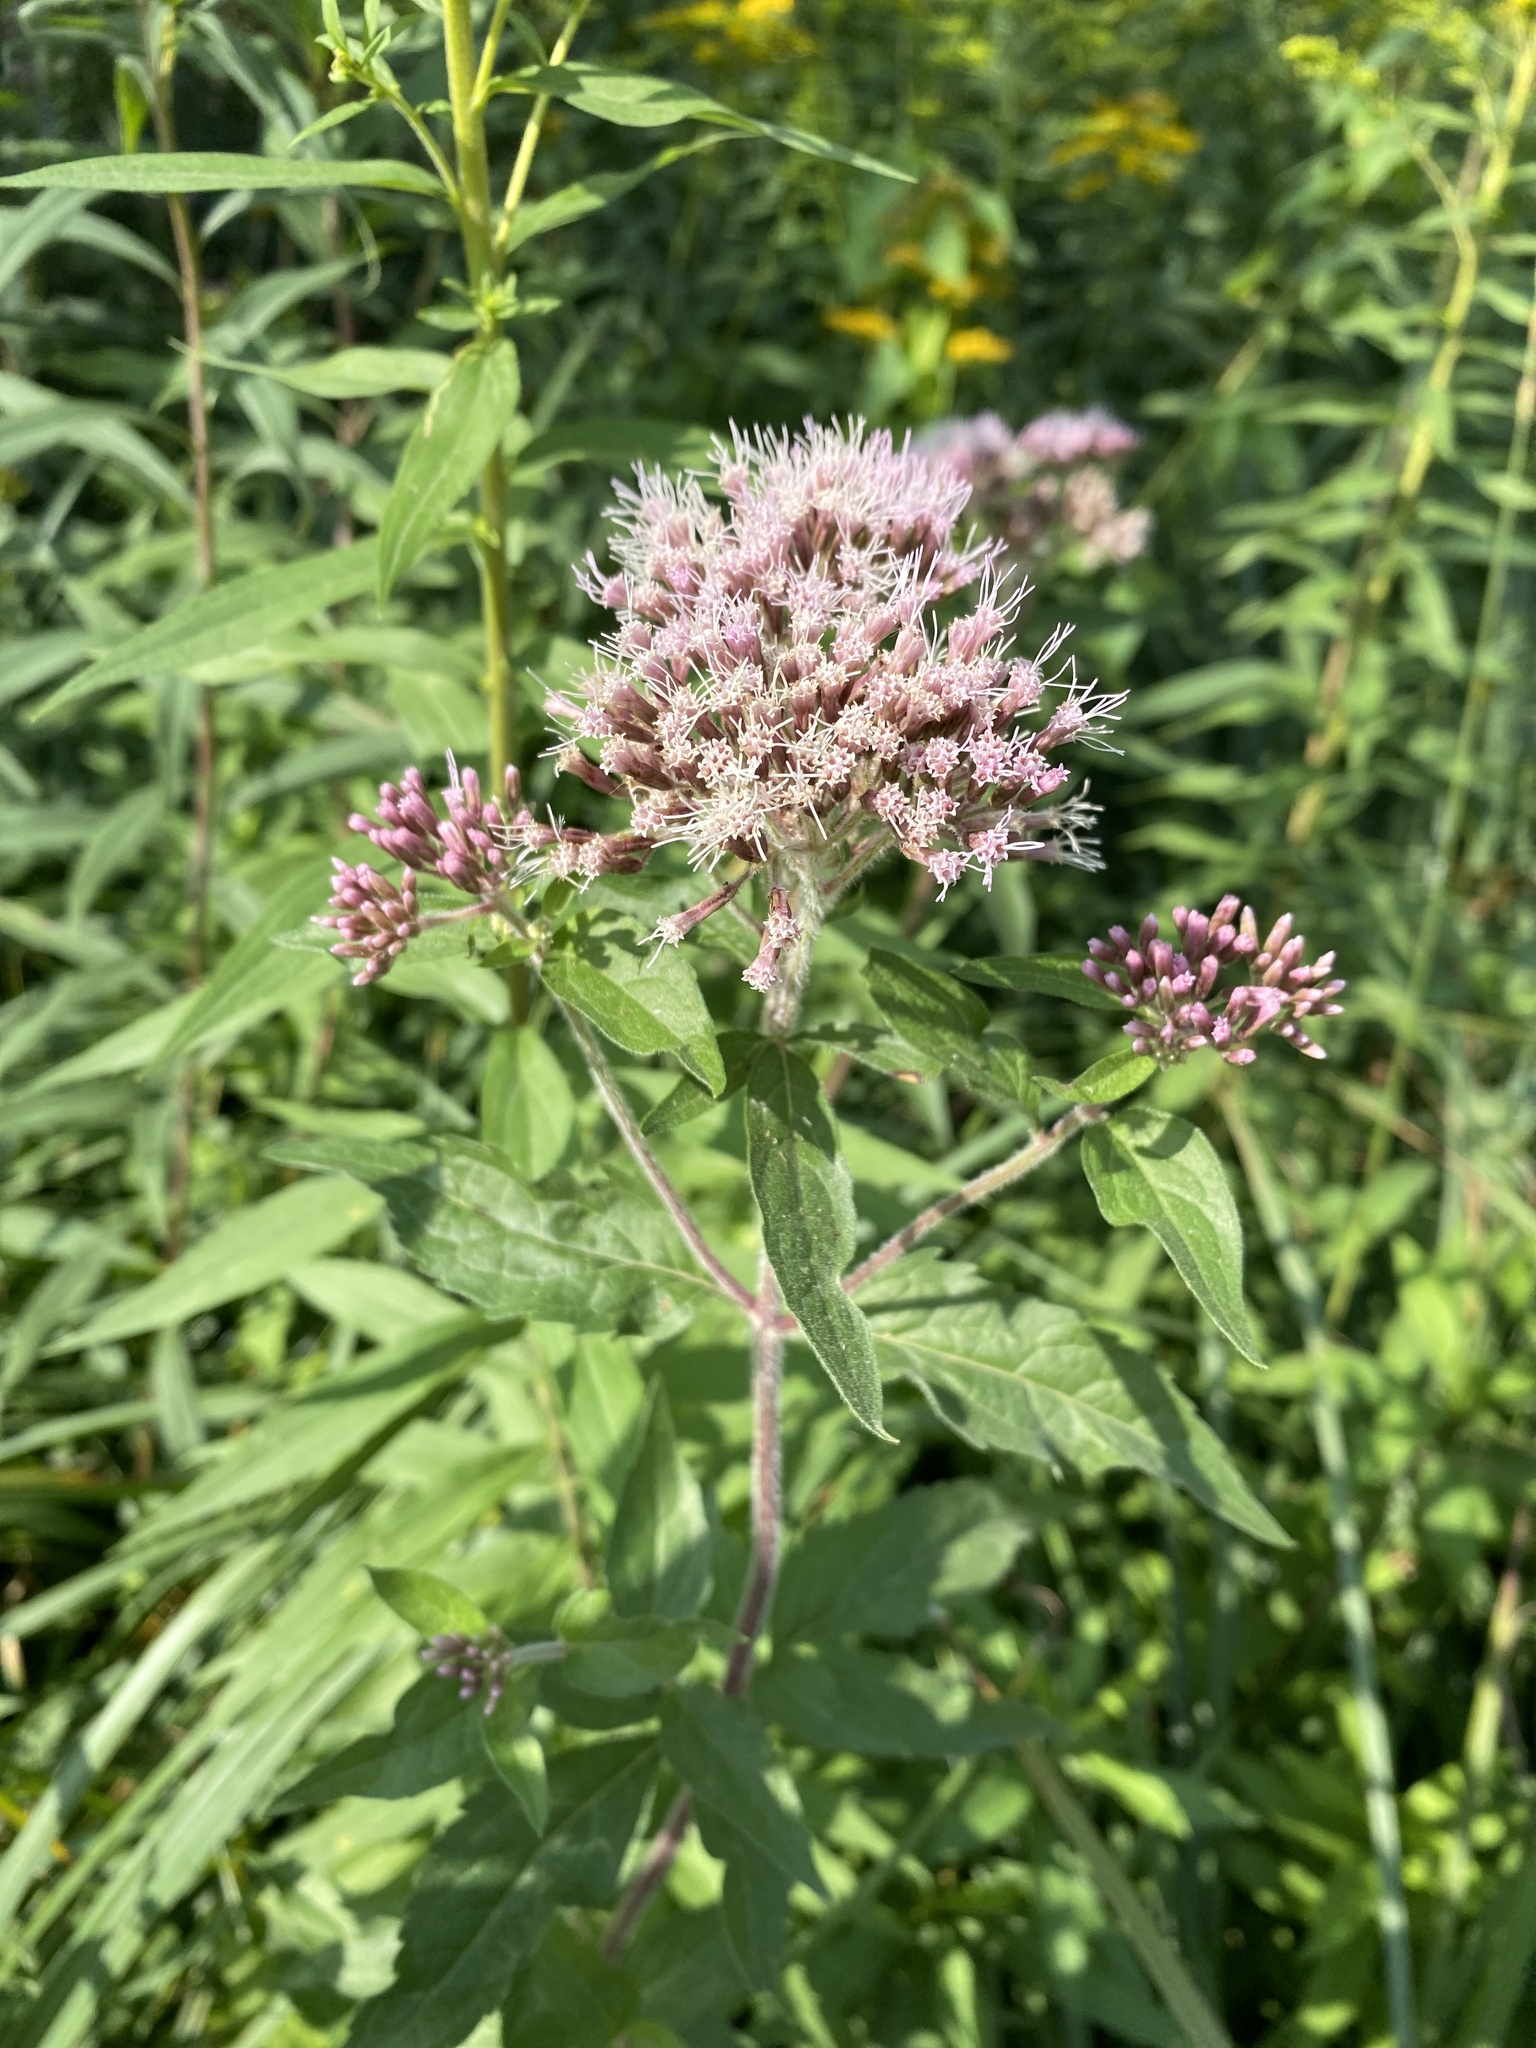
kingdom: Plantae
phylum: Tracheophyta
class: Magnoliopsida
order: Asterales
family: Asteraceae
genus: Eupatorium
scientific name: Eupatorium cannabinum
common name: Hemp-agrimony
